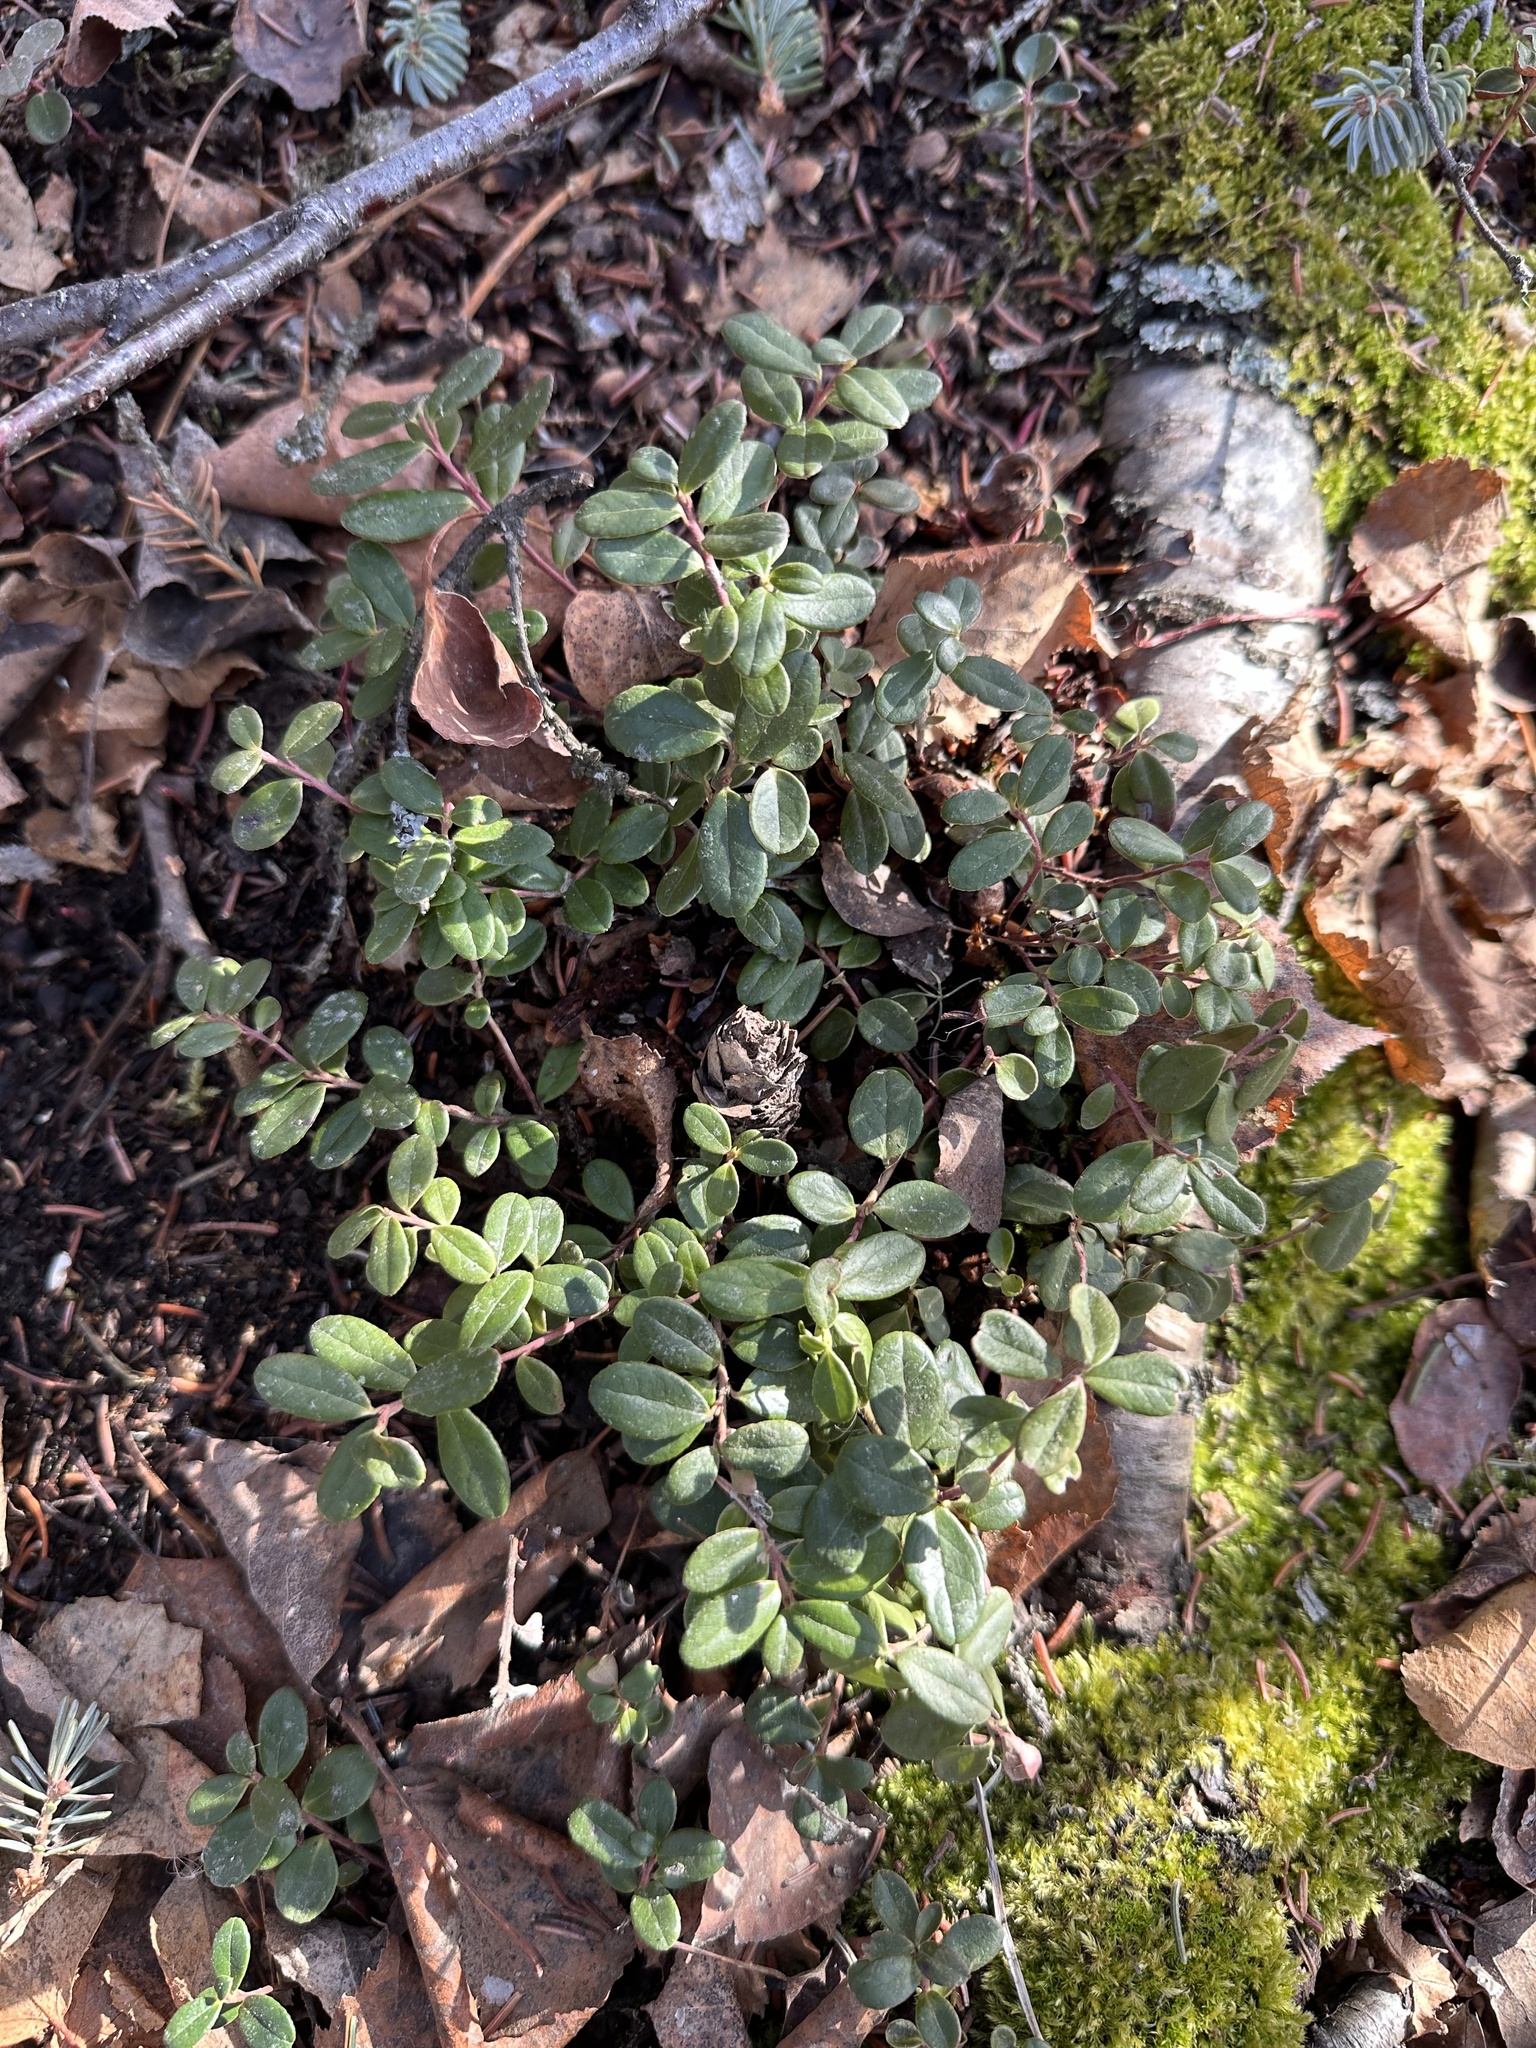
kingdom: Plantae
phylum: Tracheophyta
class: Magnoliopsida
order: Ericales
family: Ericaceae
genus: Vaccinium
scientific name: Vaccinium vitis-idaea
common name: Cowberry
